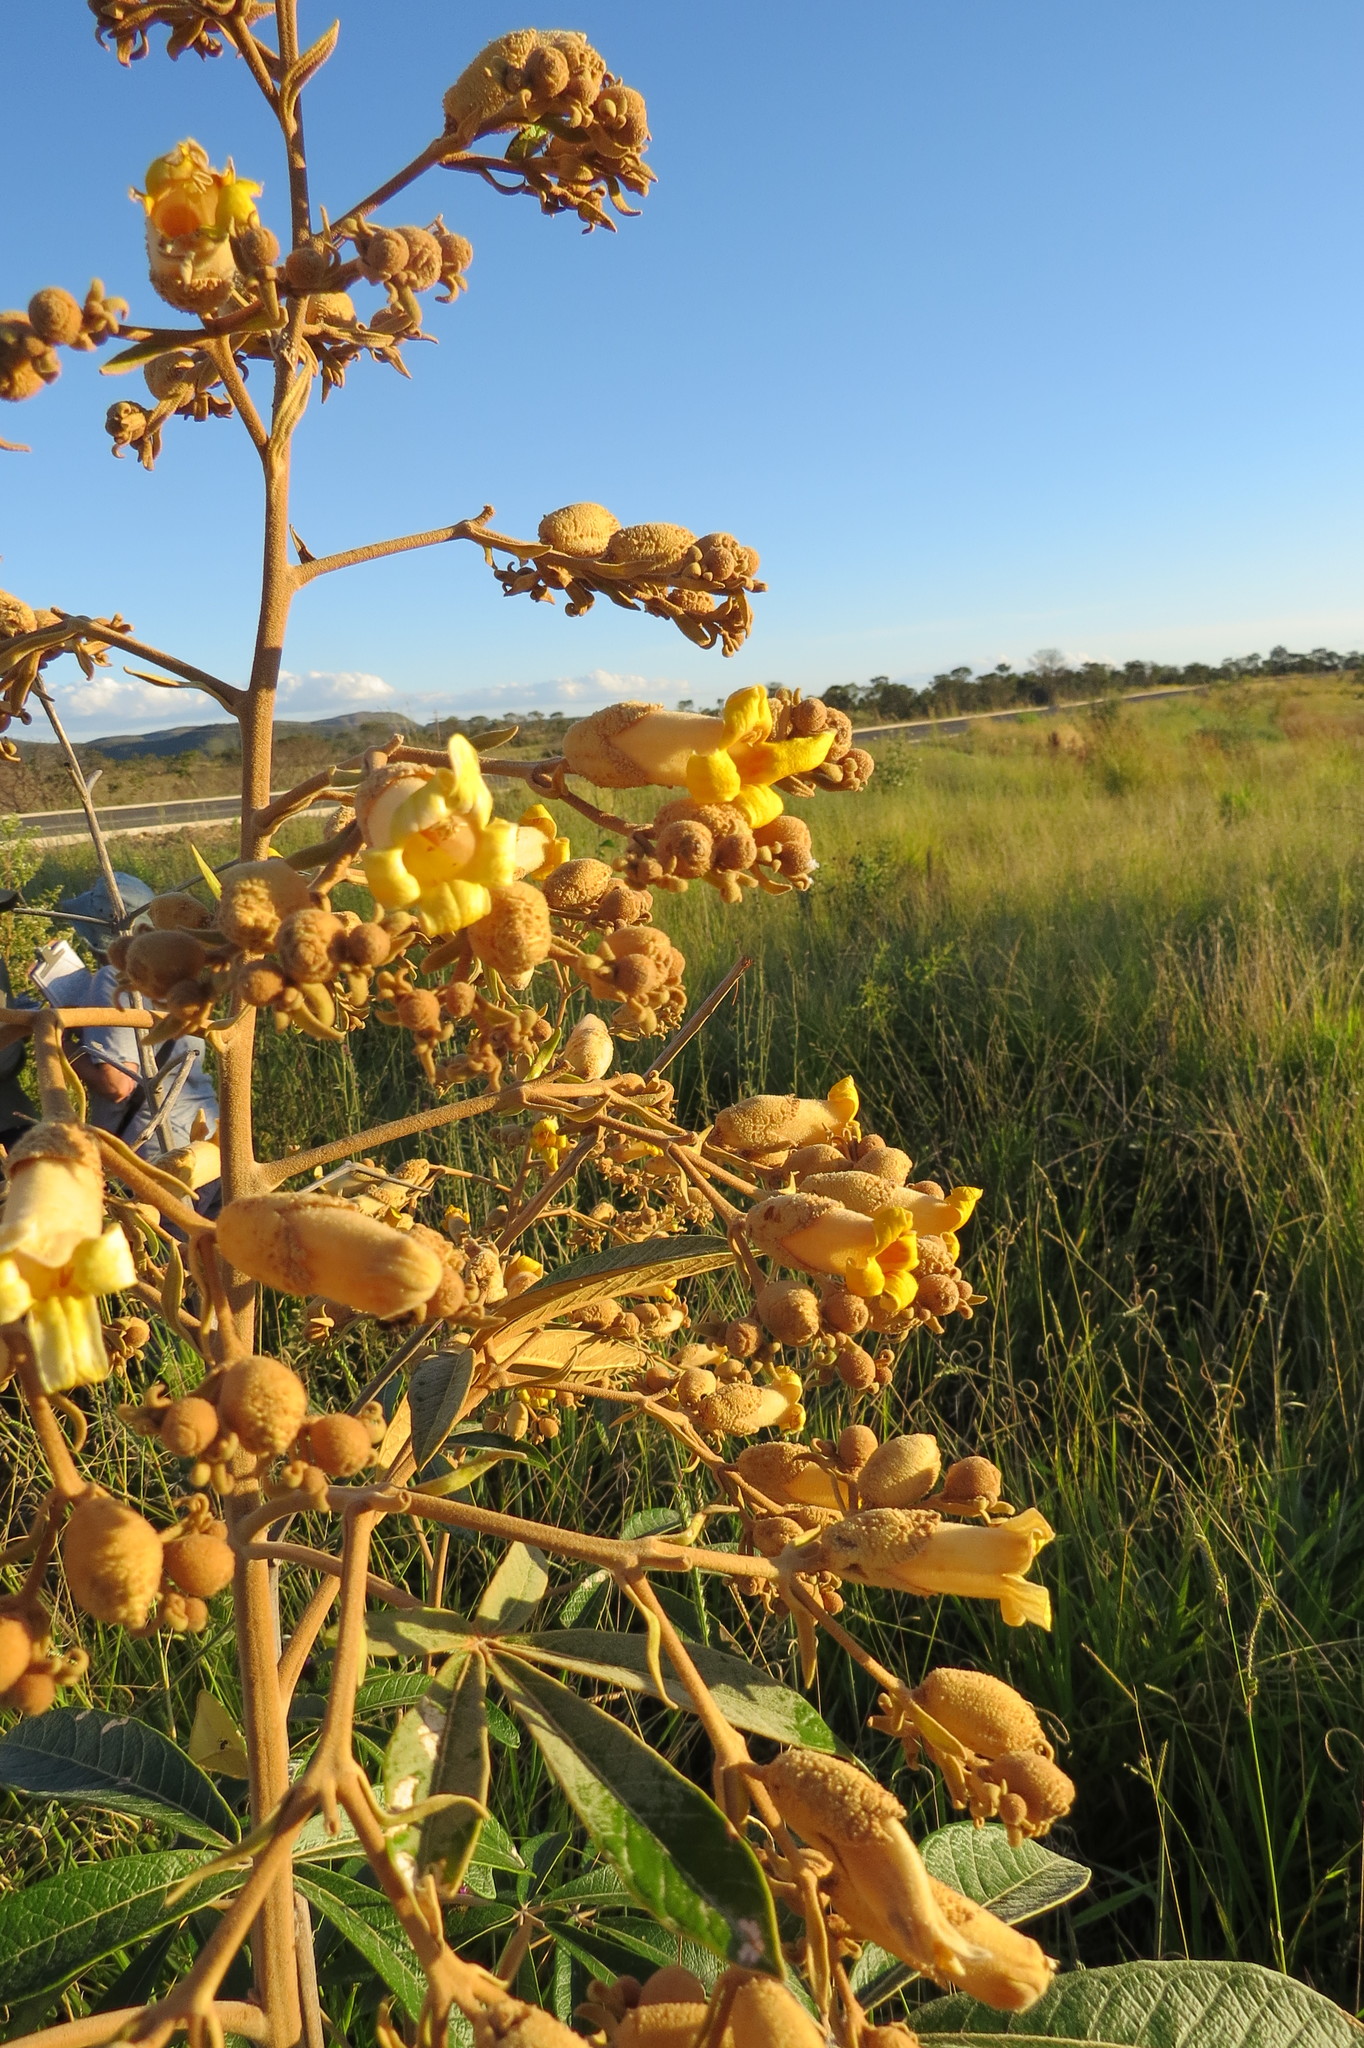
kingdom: Plantae
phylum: Tracheophyta
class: Magnoliopsida
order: Lamiales
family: Bignoniaceae
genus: Zeyheria
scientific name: Zeyheria montana
